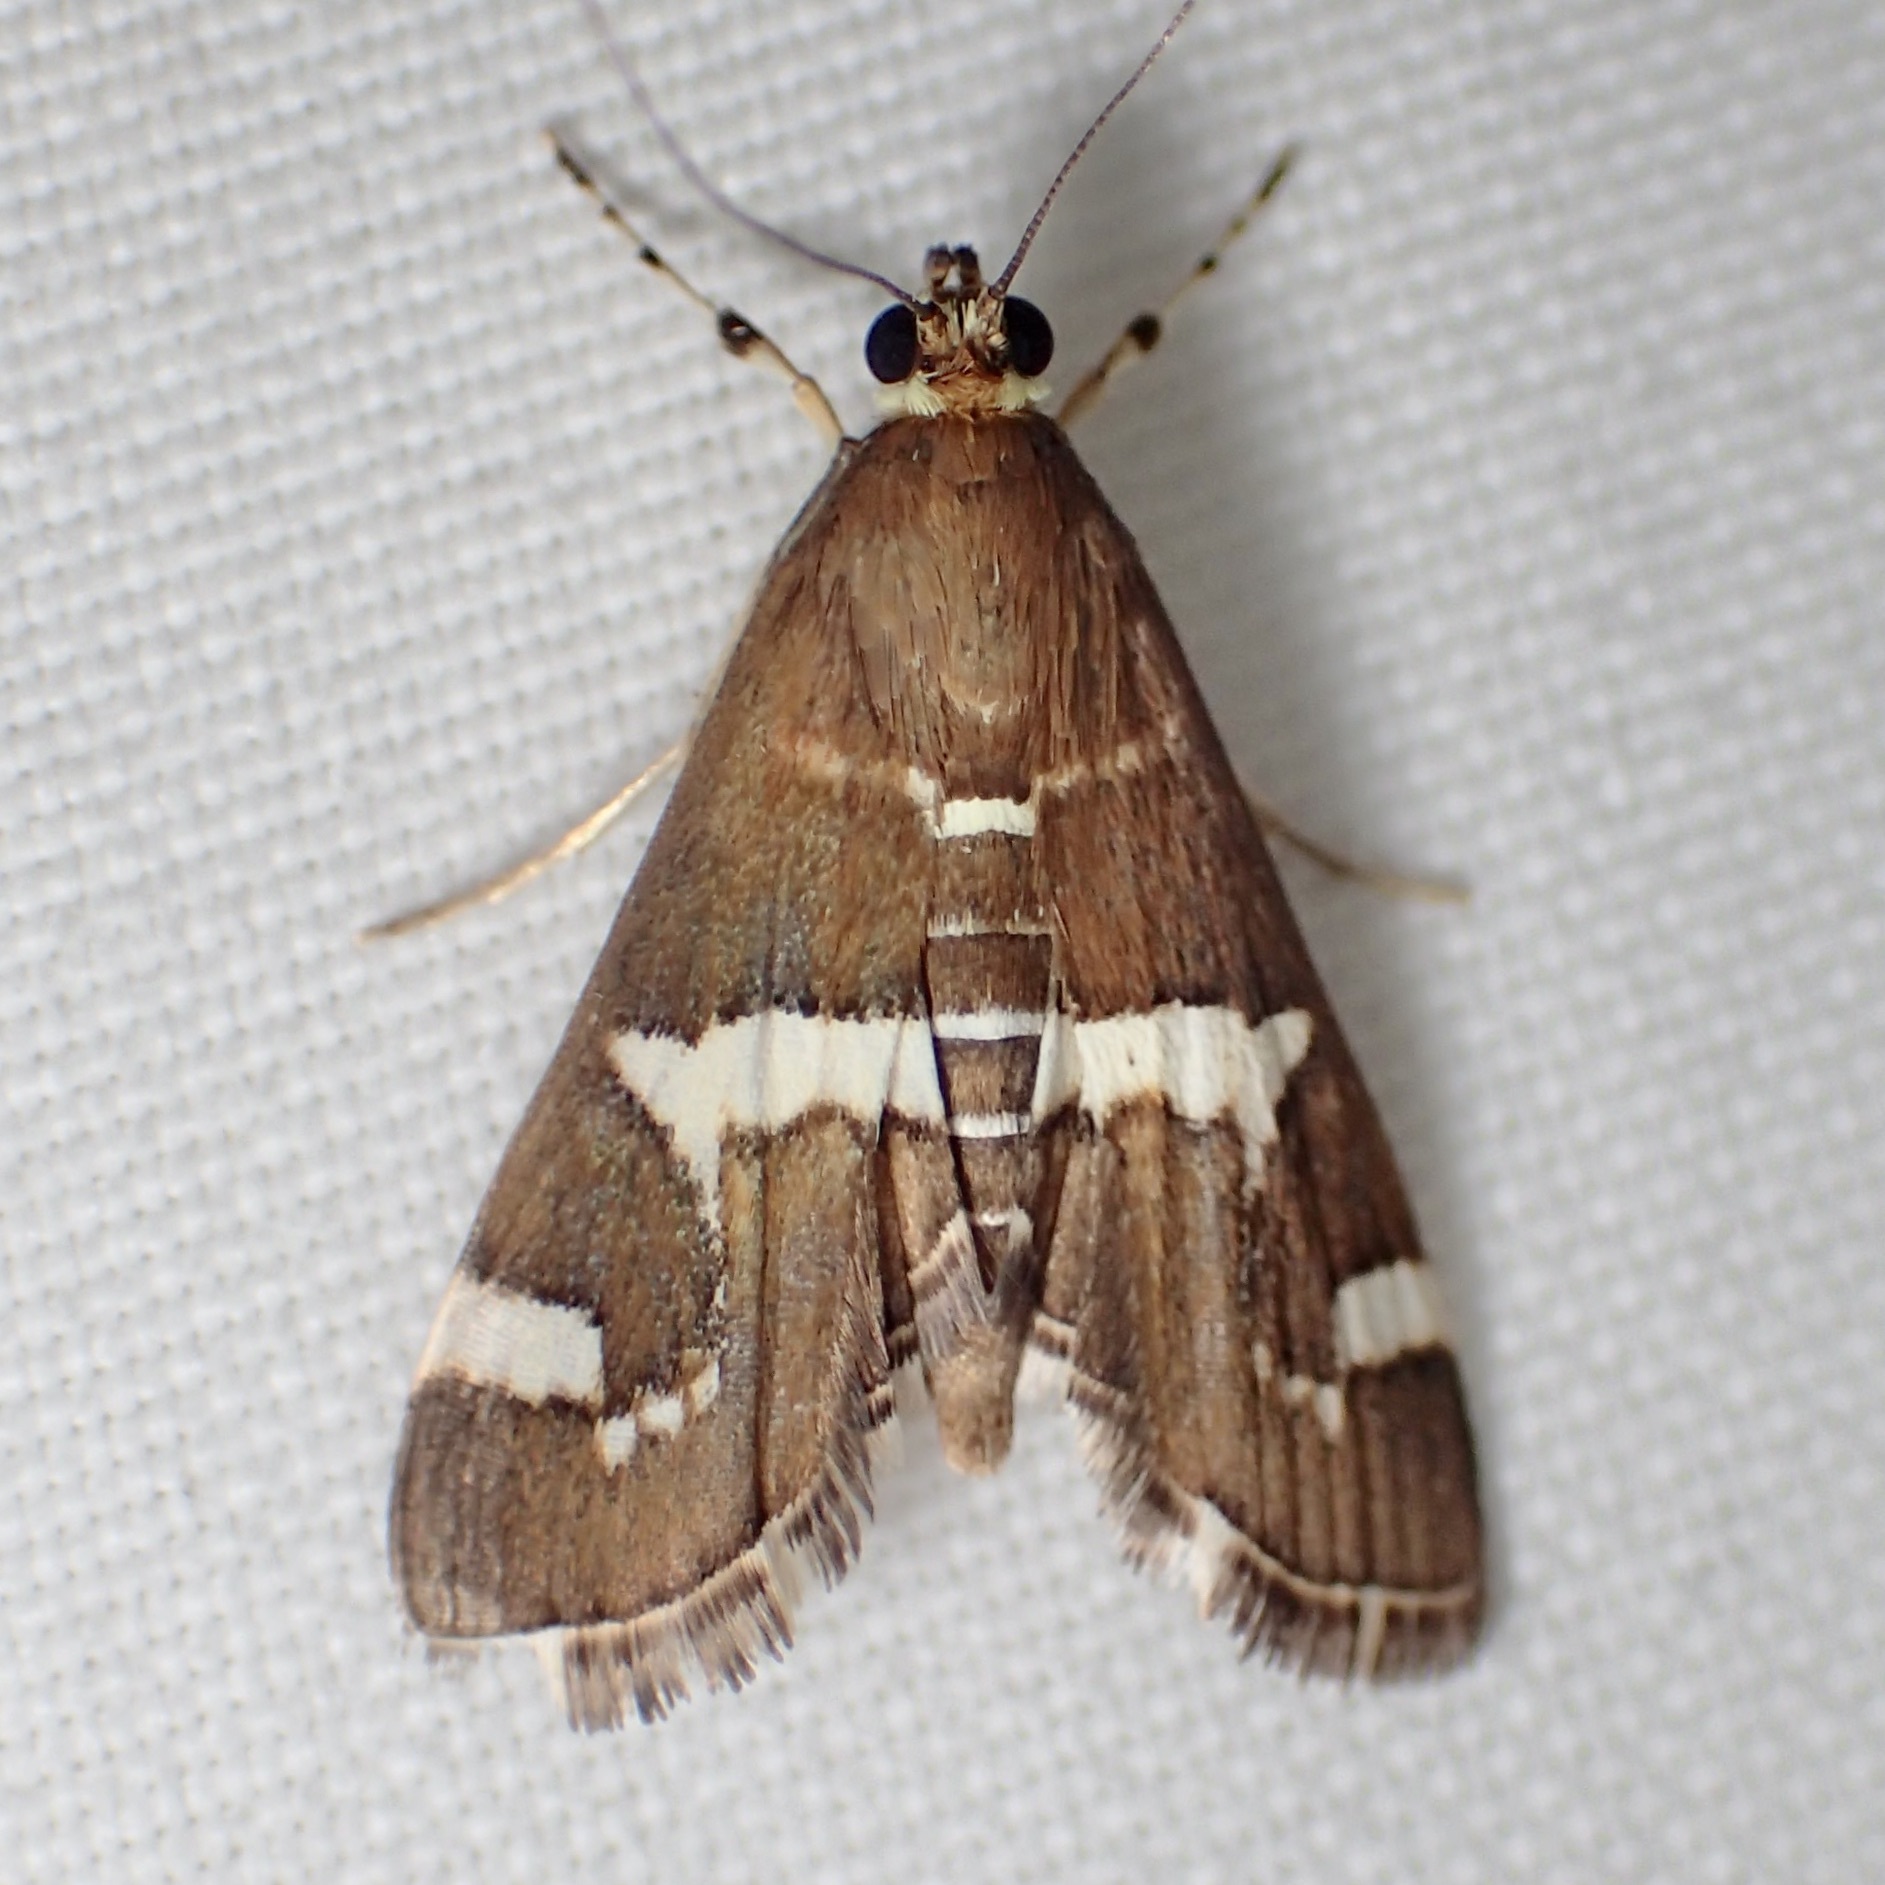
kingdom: Animalia
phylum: Arthropoda
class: Insecta
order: Lepidoptera
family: Crambidae
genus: Spoladea
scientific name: Spoladea recurvalis
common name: Beet webworm moth
